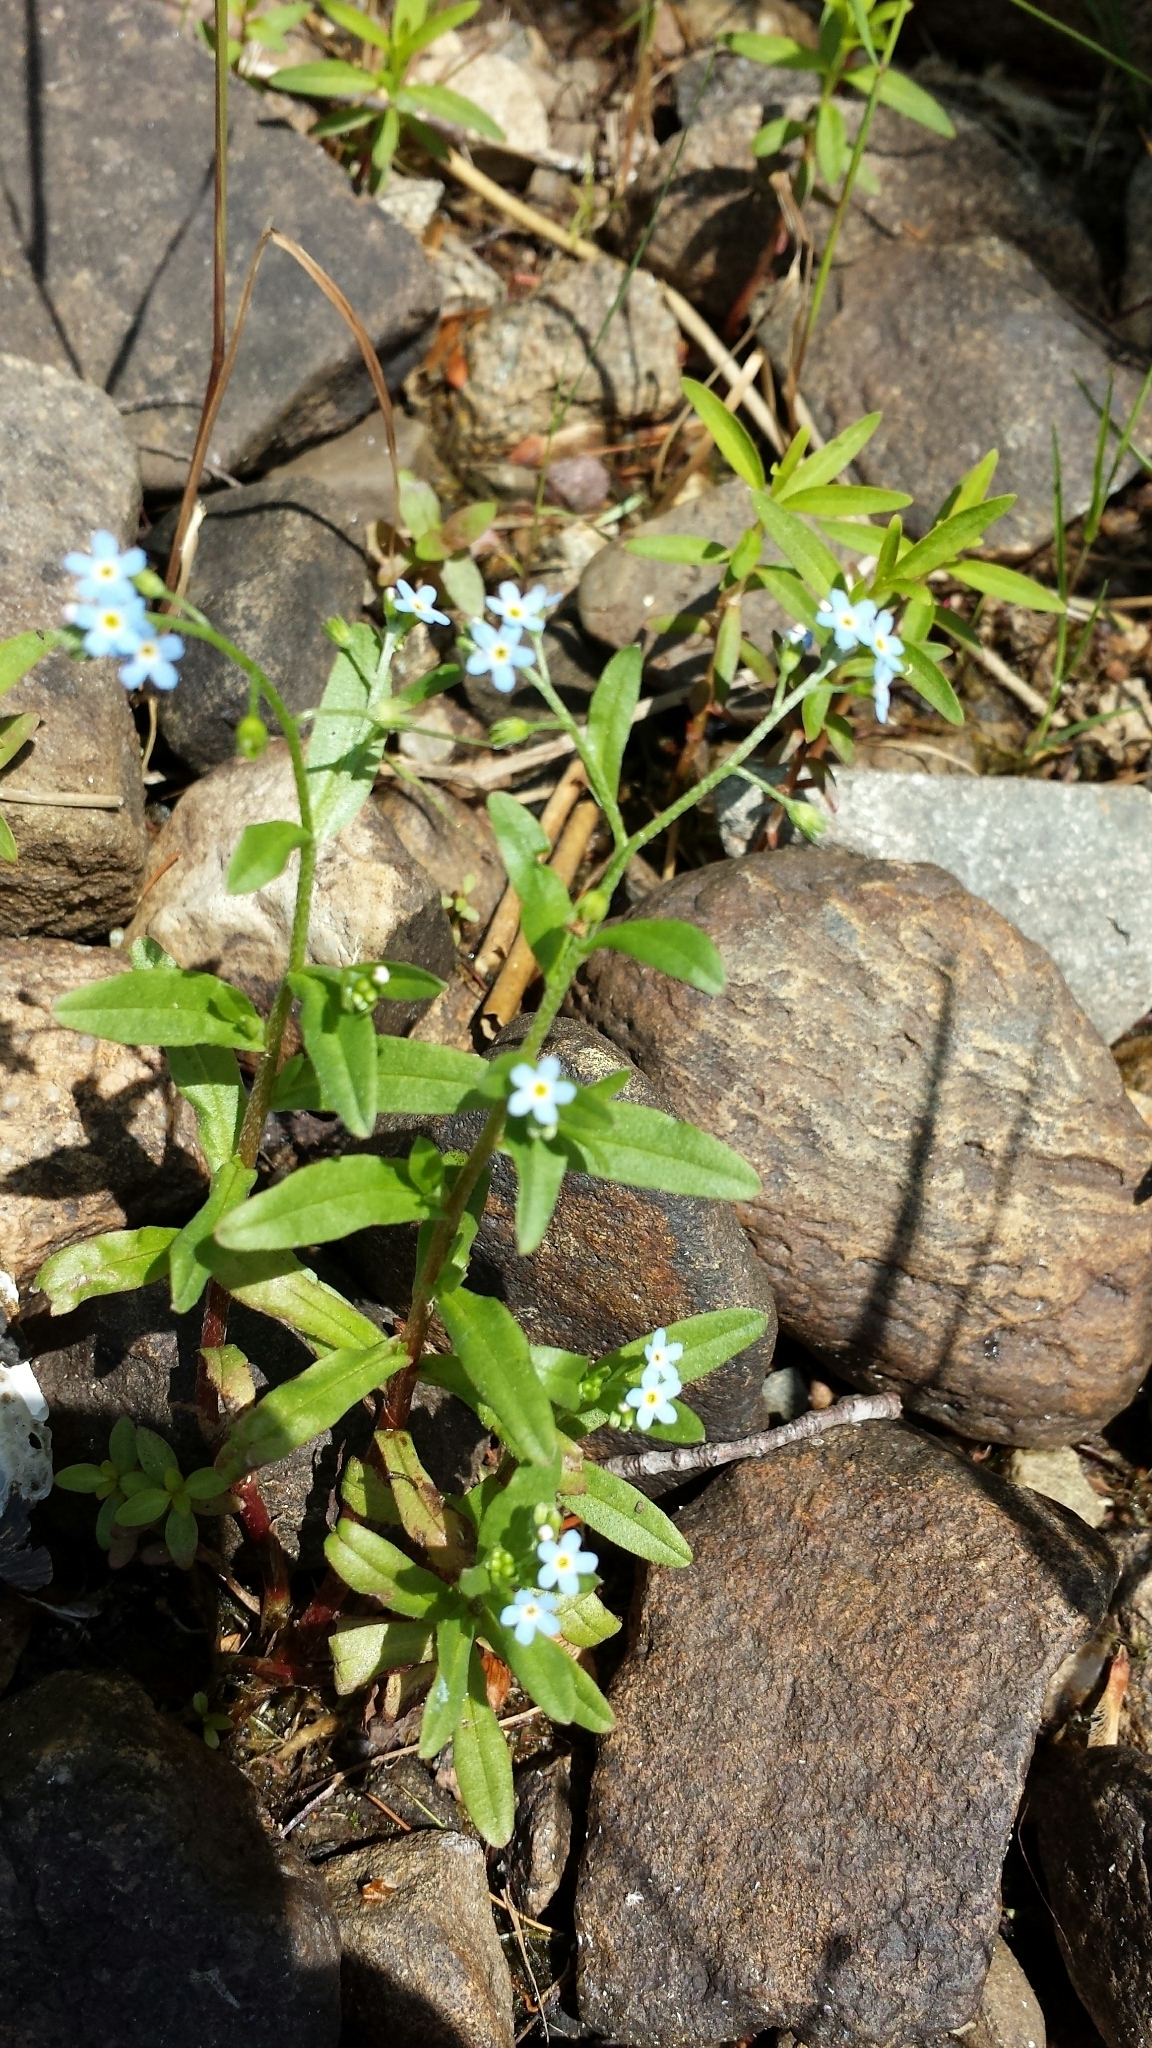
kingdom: Plantae
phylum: Tracheophyta
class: Magnoliopsida
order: Boraginales
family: Boraginaceae
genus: Myosotis
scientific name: Myosotis scorpioides
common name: Water forget-me-not
